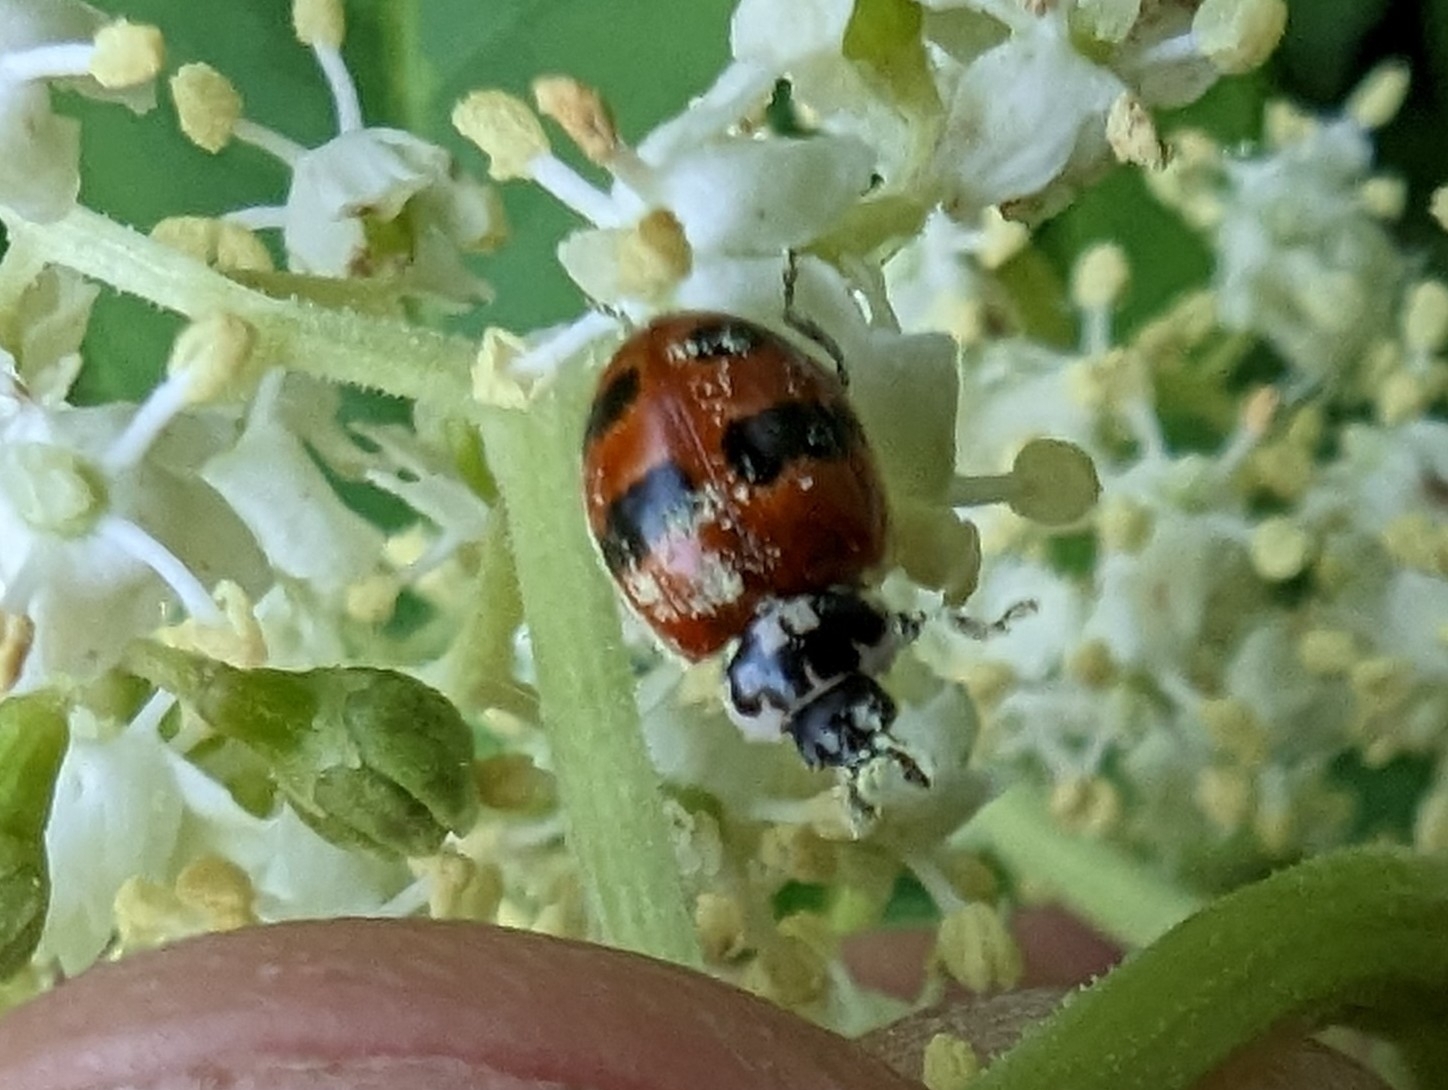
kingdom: Animalia
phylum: Arthropoda
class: Insecta
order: Coleoptera
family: Coccinellidae
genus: Adalia
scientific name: Adalia bipunctata
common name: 2-spot ladybird
